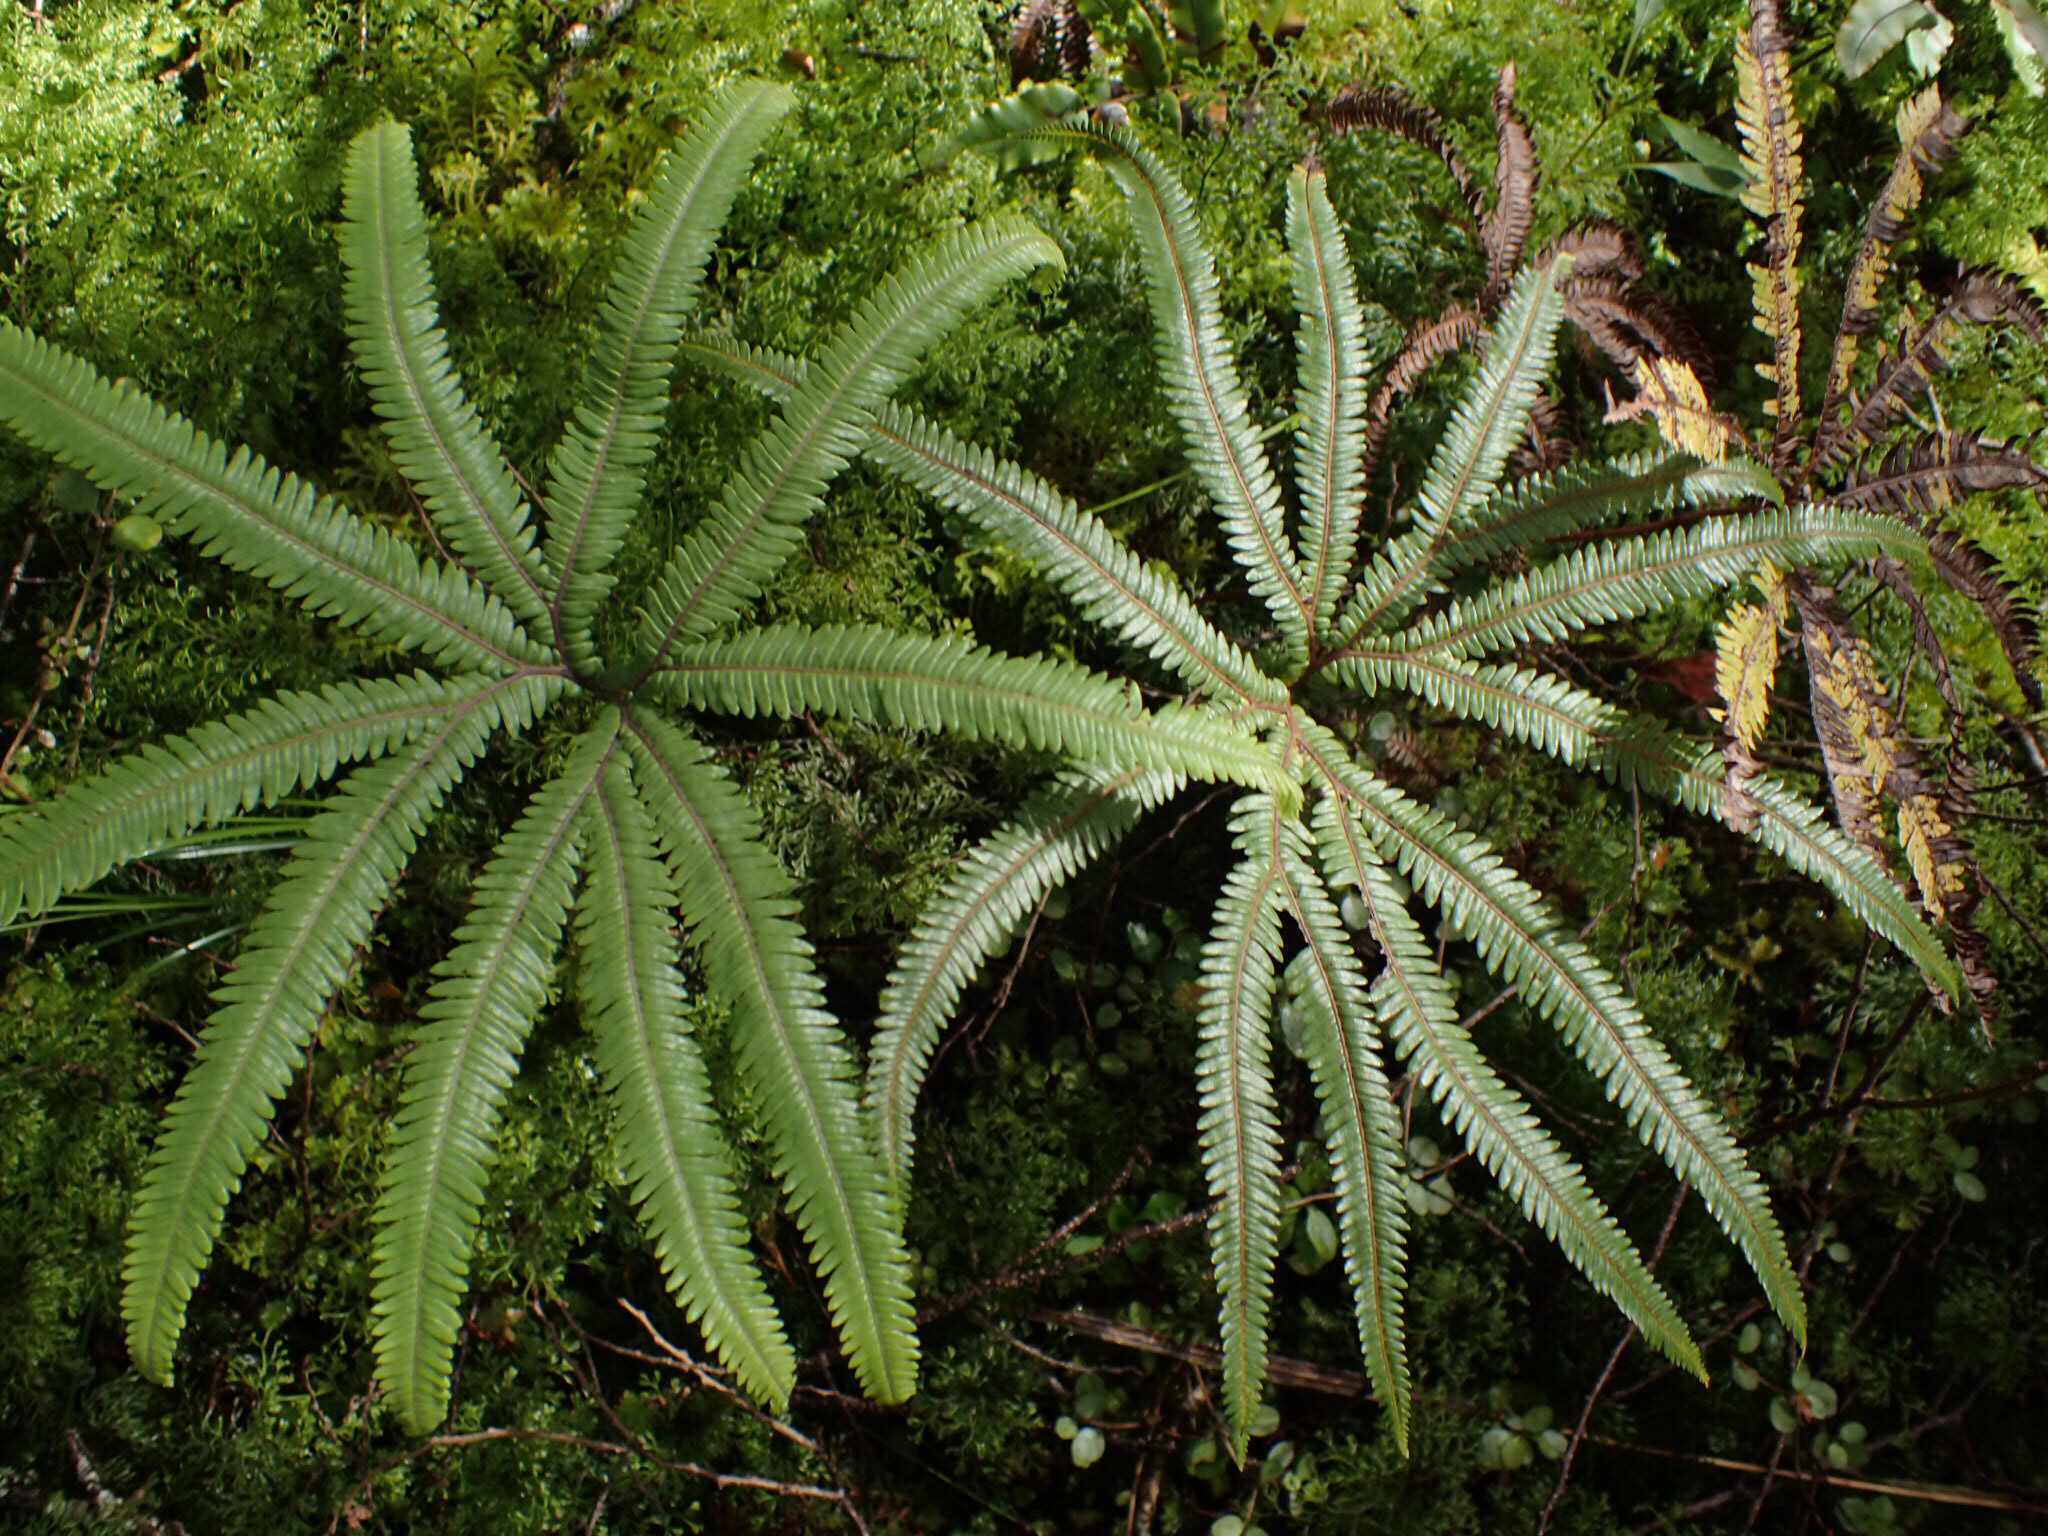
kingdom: Plantae
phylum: Tracheophyta
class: Polypodiopsida
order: Gleicheniales
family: Gleicheniaceae
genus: Sticherus
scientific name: Sticherus cunninghamii
